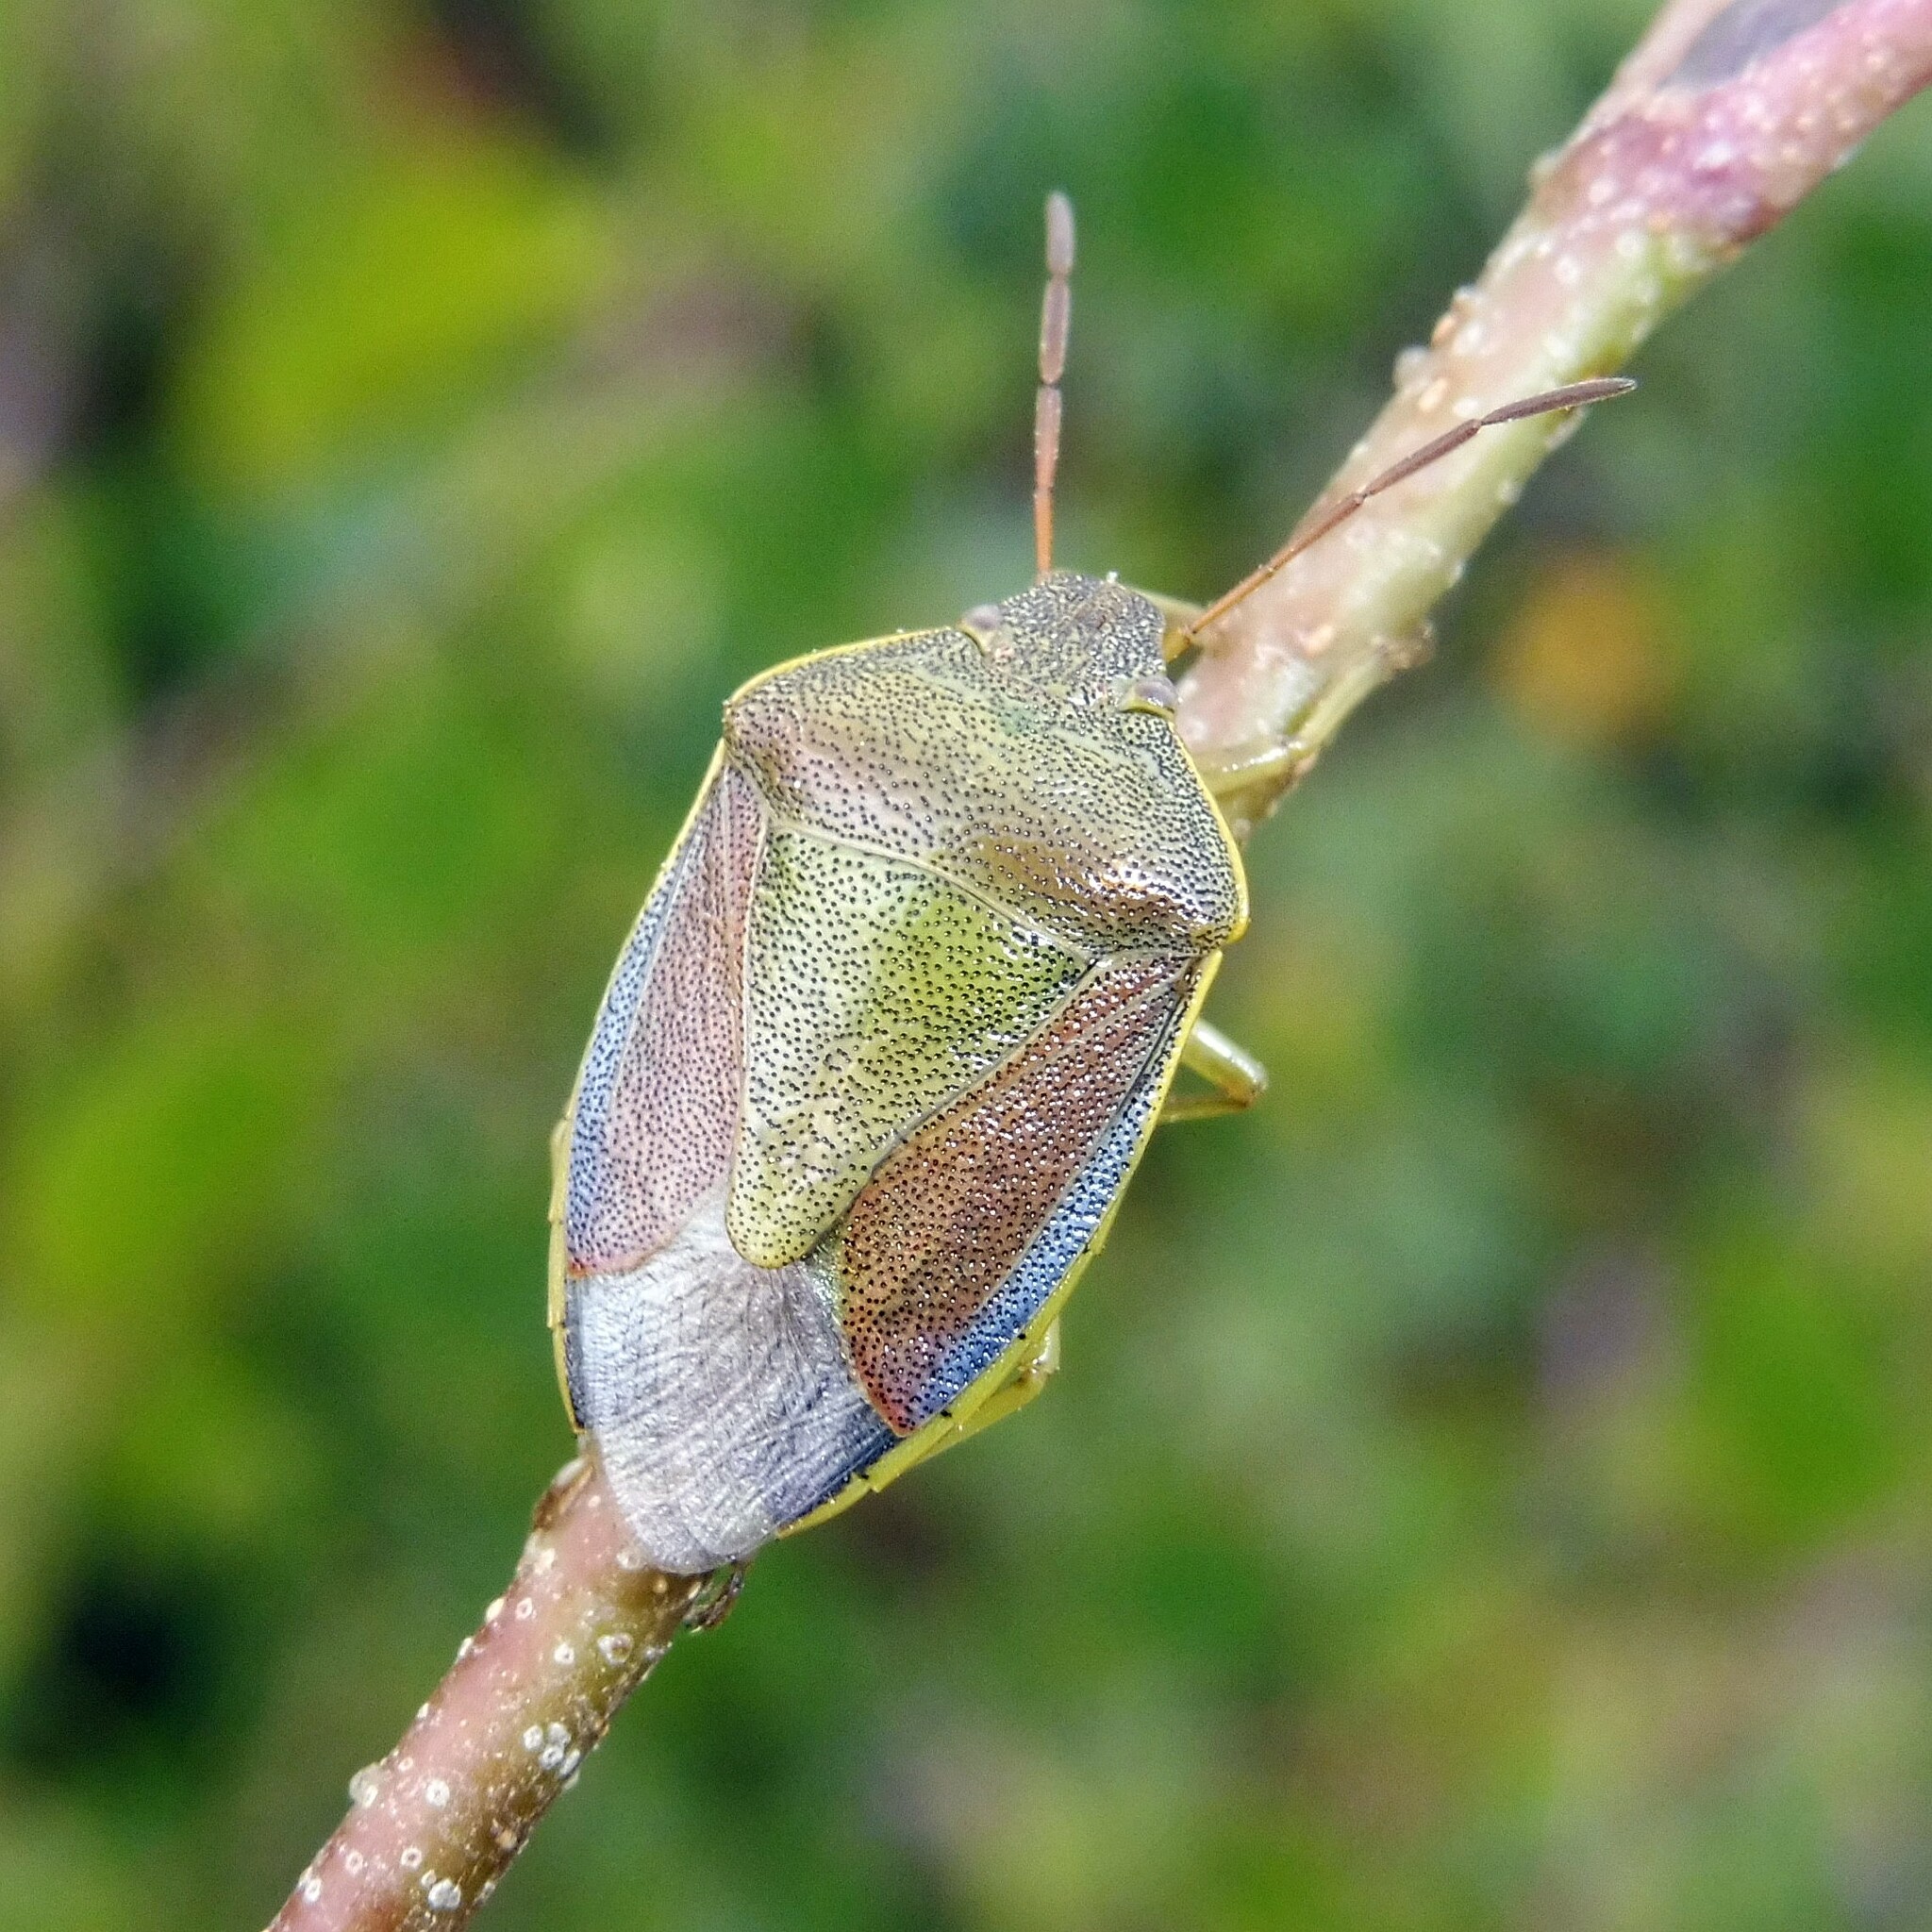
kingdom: Animalia
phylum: Arthropoda
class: Insecta
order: Hemiptera
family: Pentatomidae
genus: Piezodorus
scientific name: Piezodorus lituratus
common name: Stink bug
